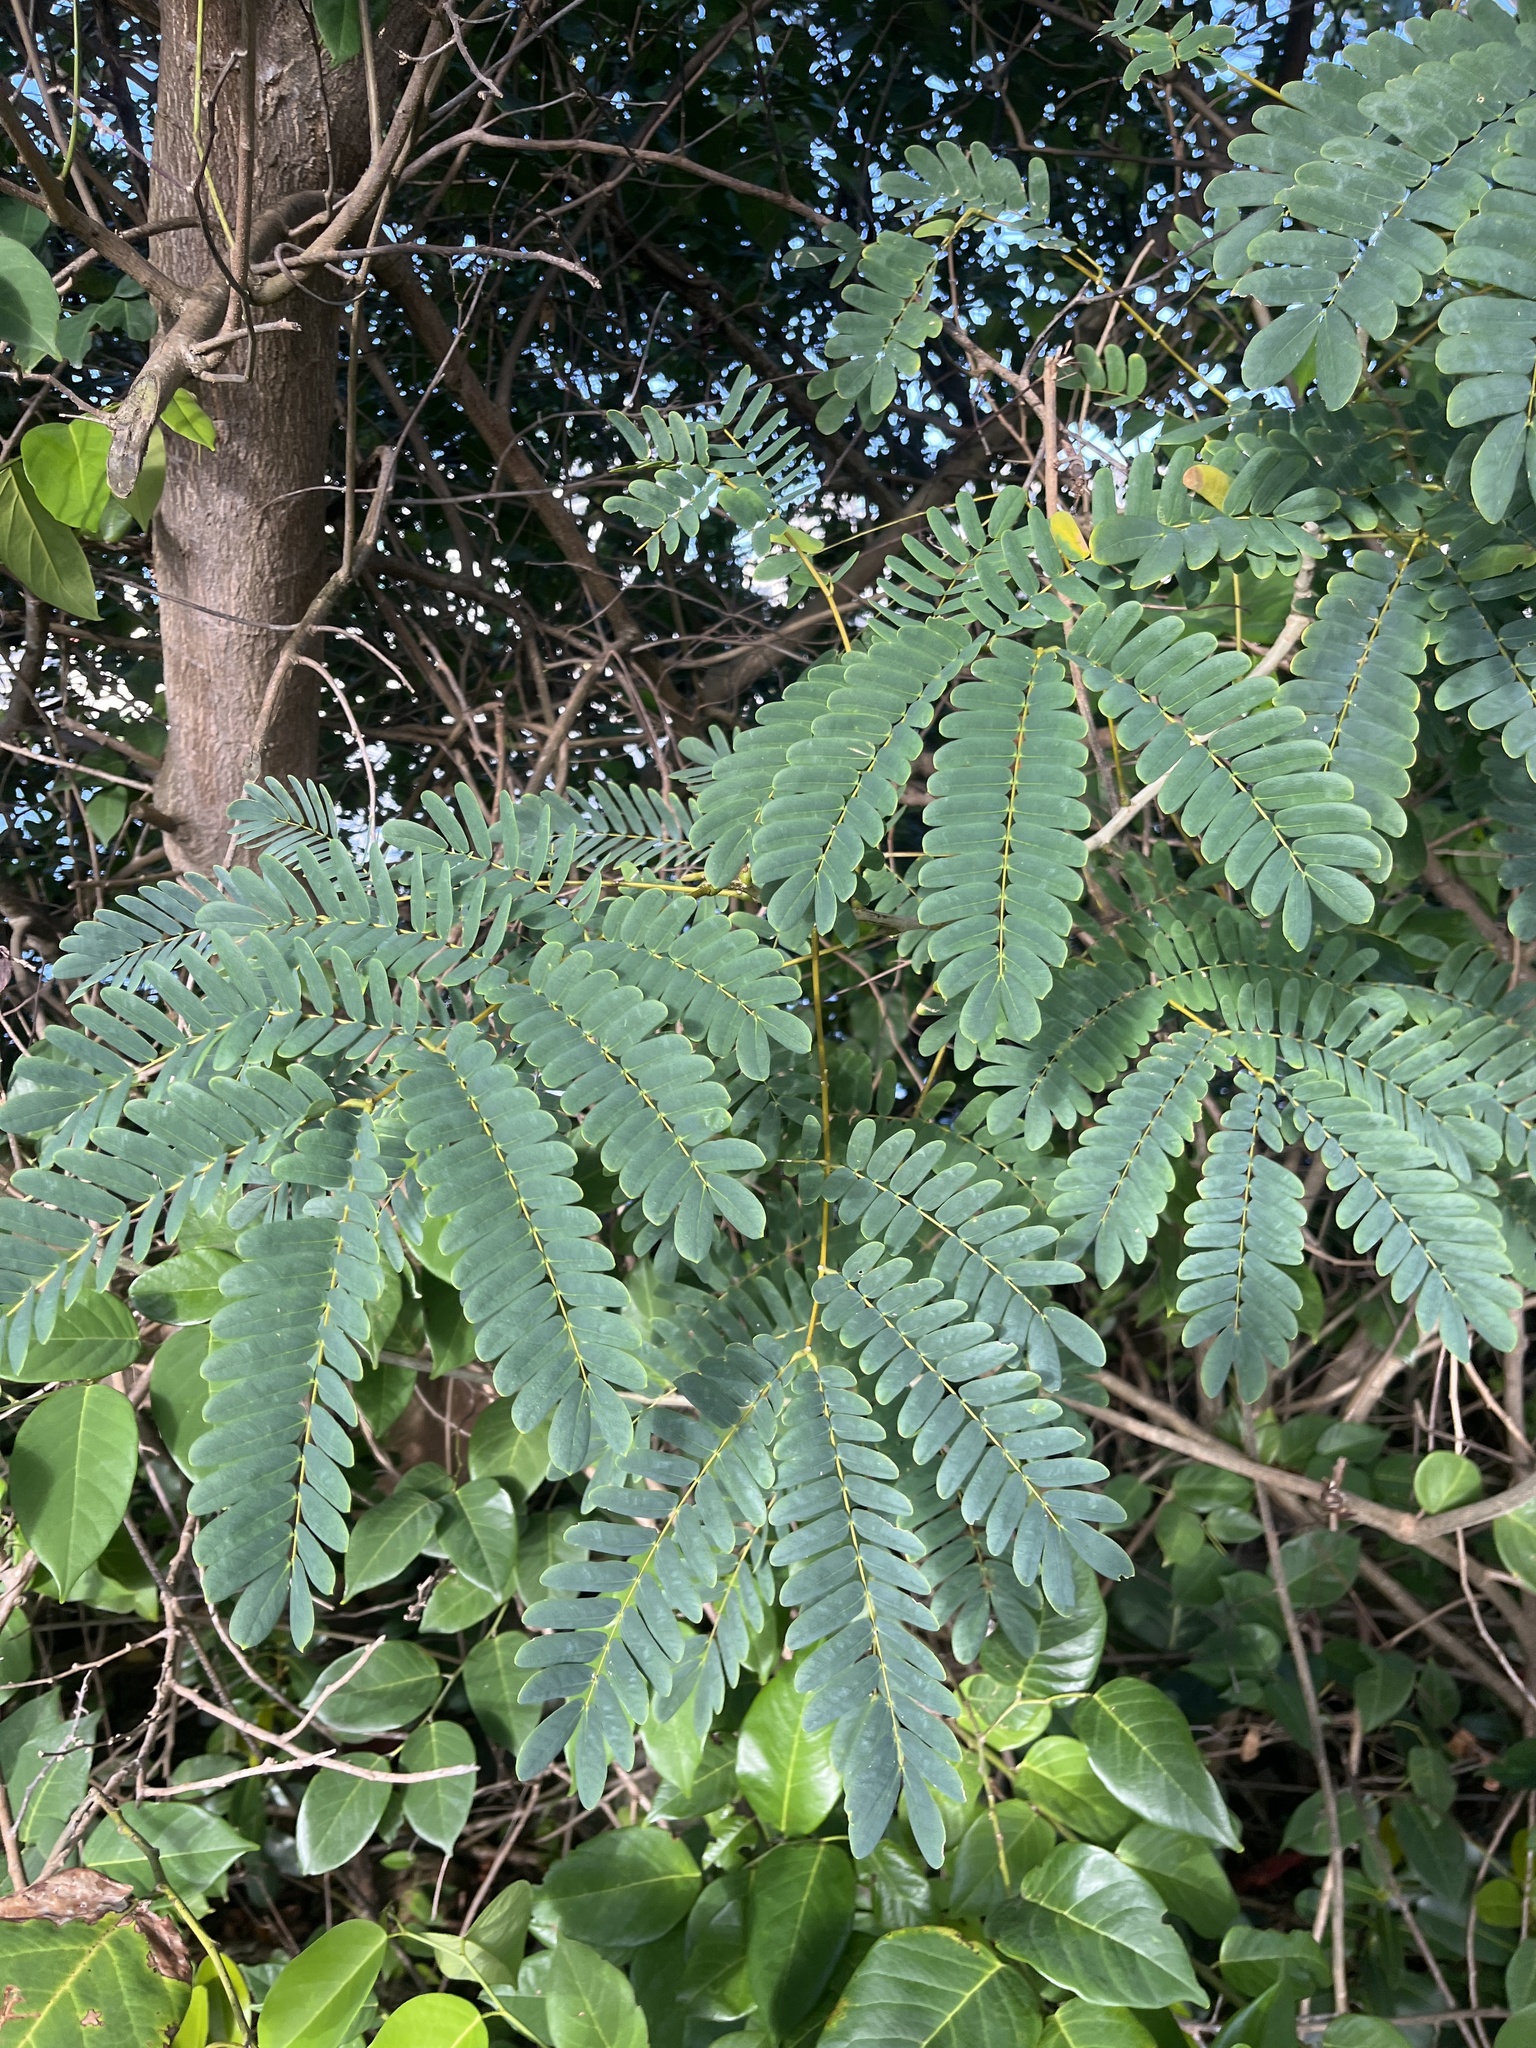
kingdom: Plantae
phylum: Tracheophyta
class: Magnoliopsida
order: Fabales
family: Fabaceae
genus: Albizia
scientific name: Albizia lebbeck
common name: Woman's tongue
